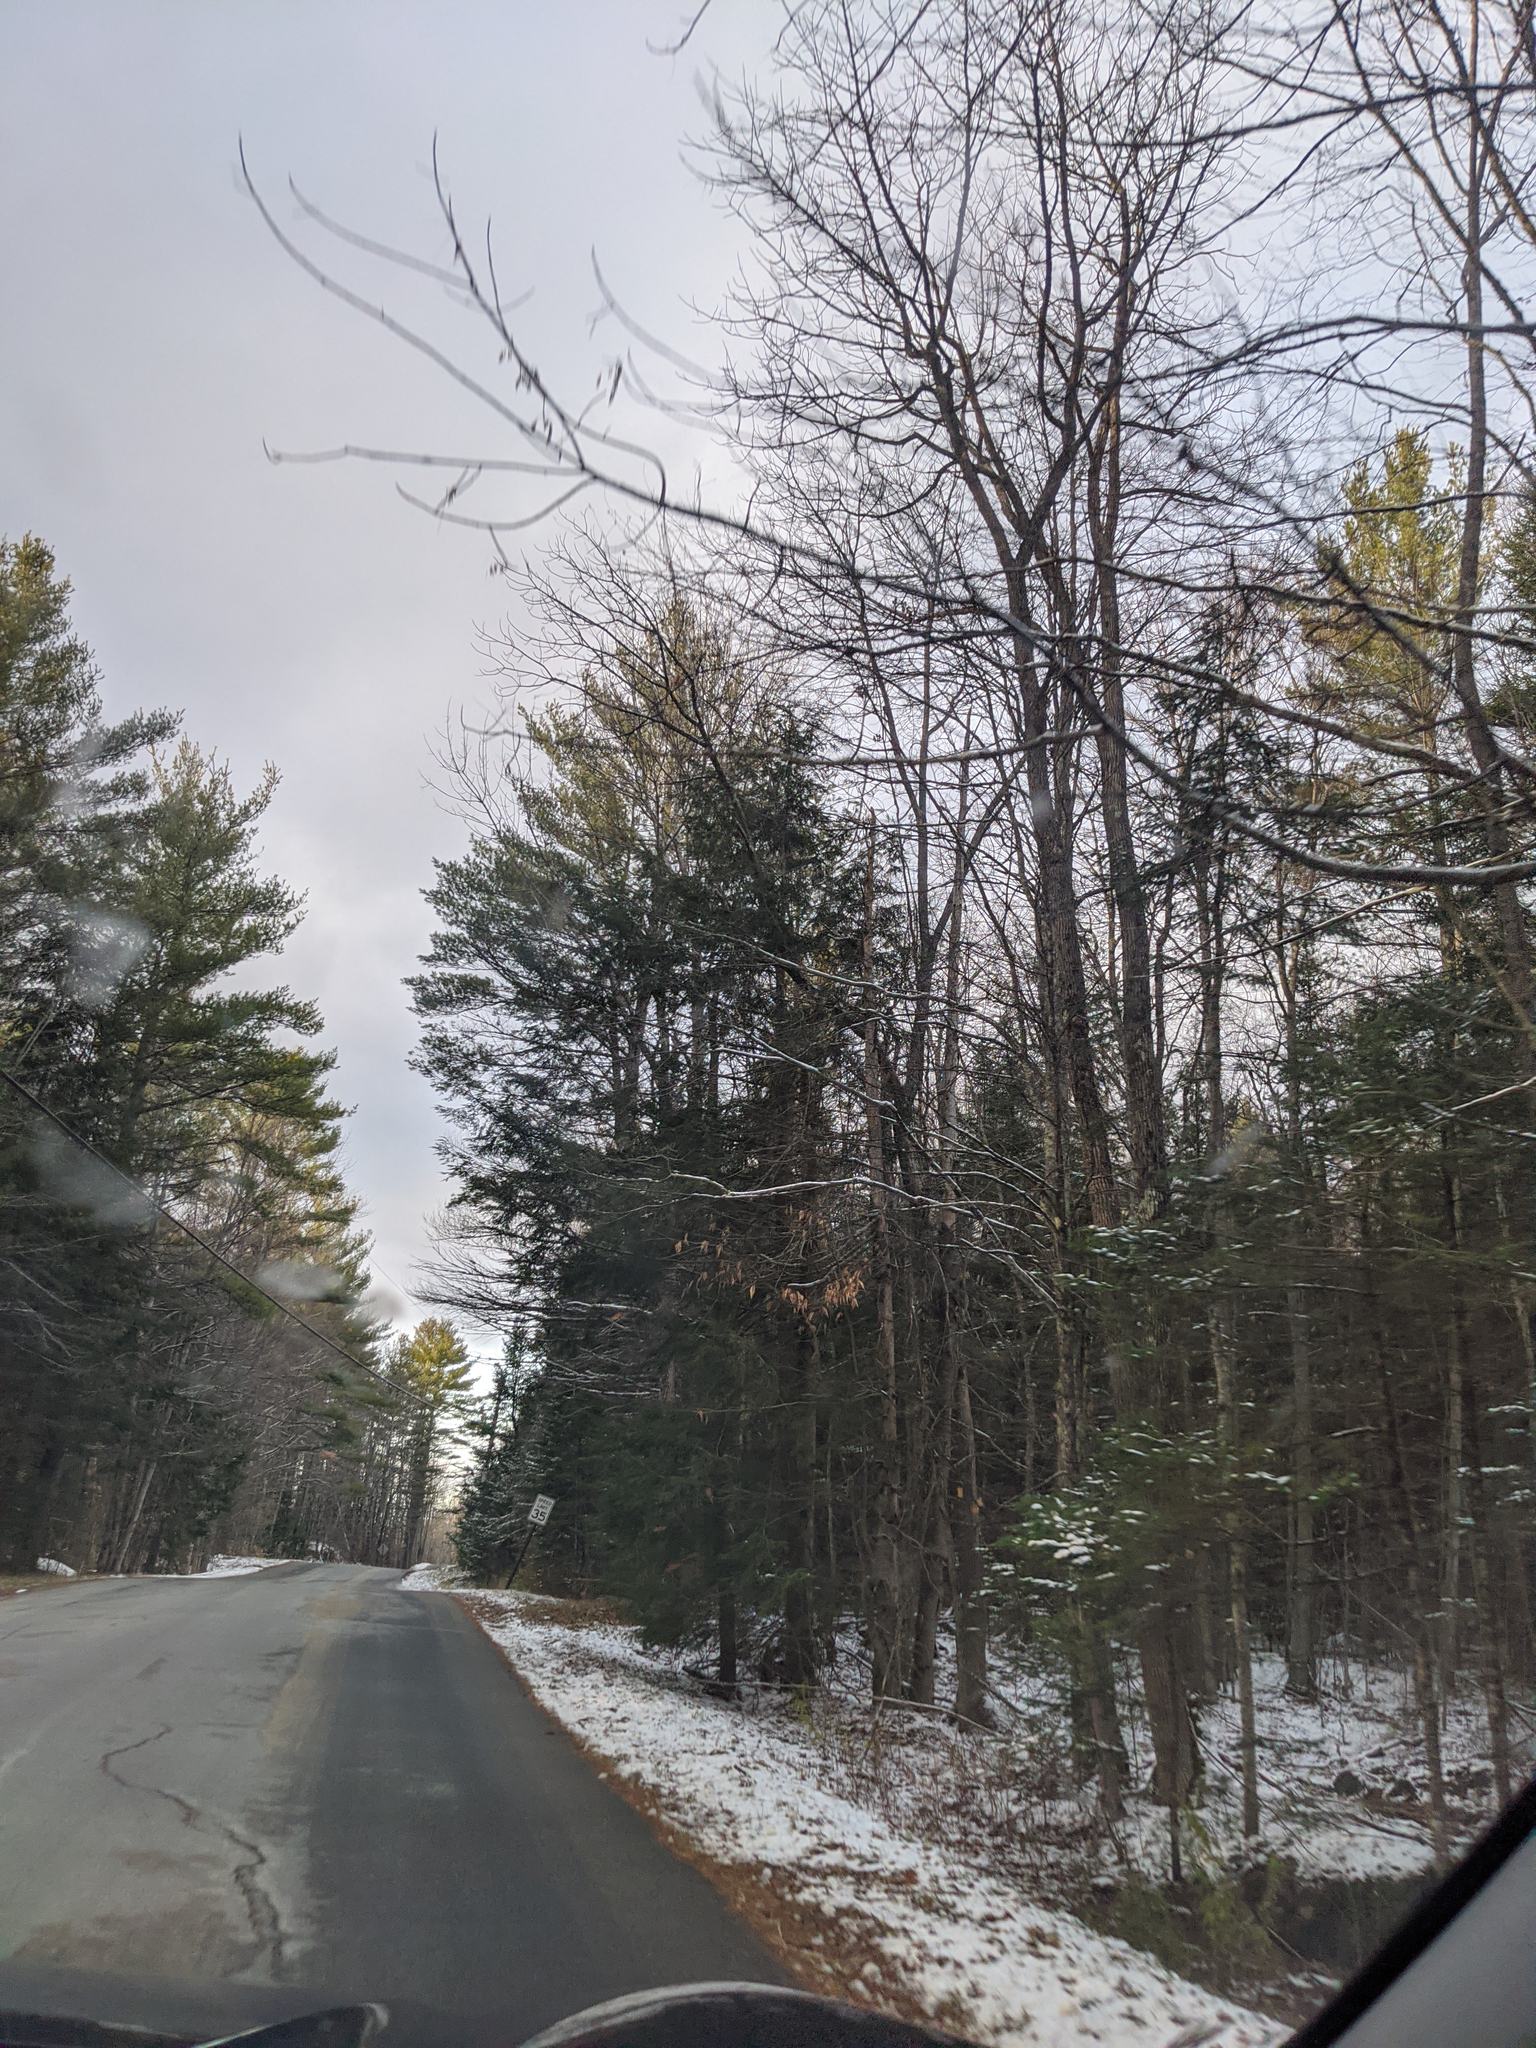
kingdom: Plantae
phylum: Tracheophyta
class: Pinopsida
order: Pinales
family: Pinaceae
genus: Pinus
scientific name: Pinus strobus
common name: Weymouth pine
